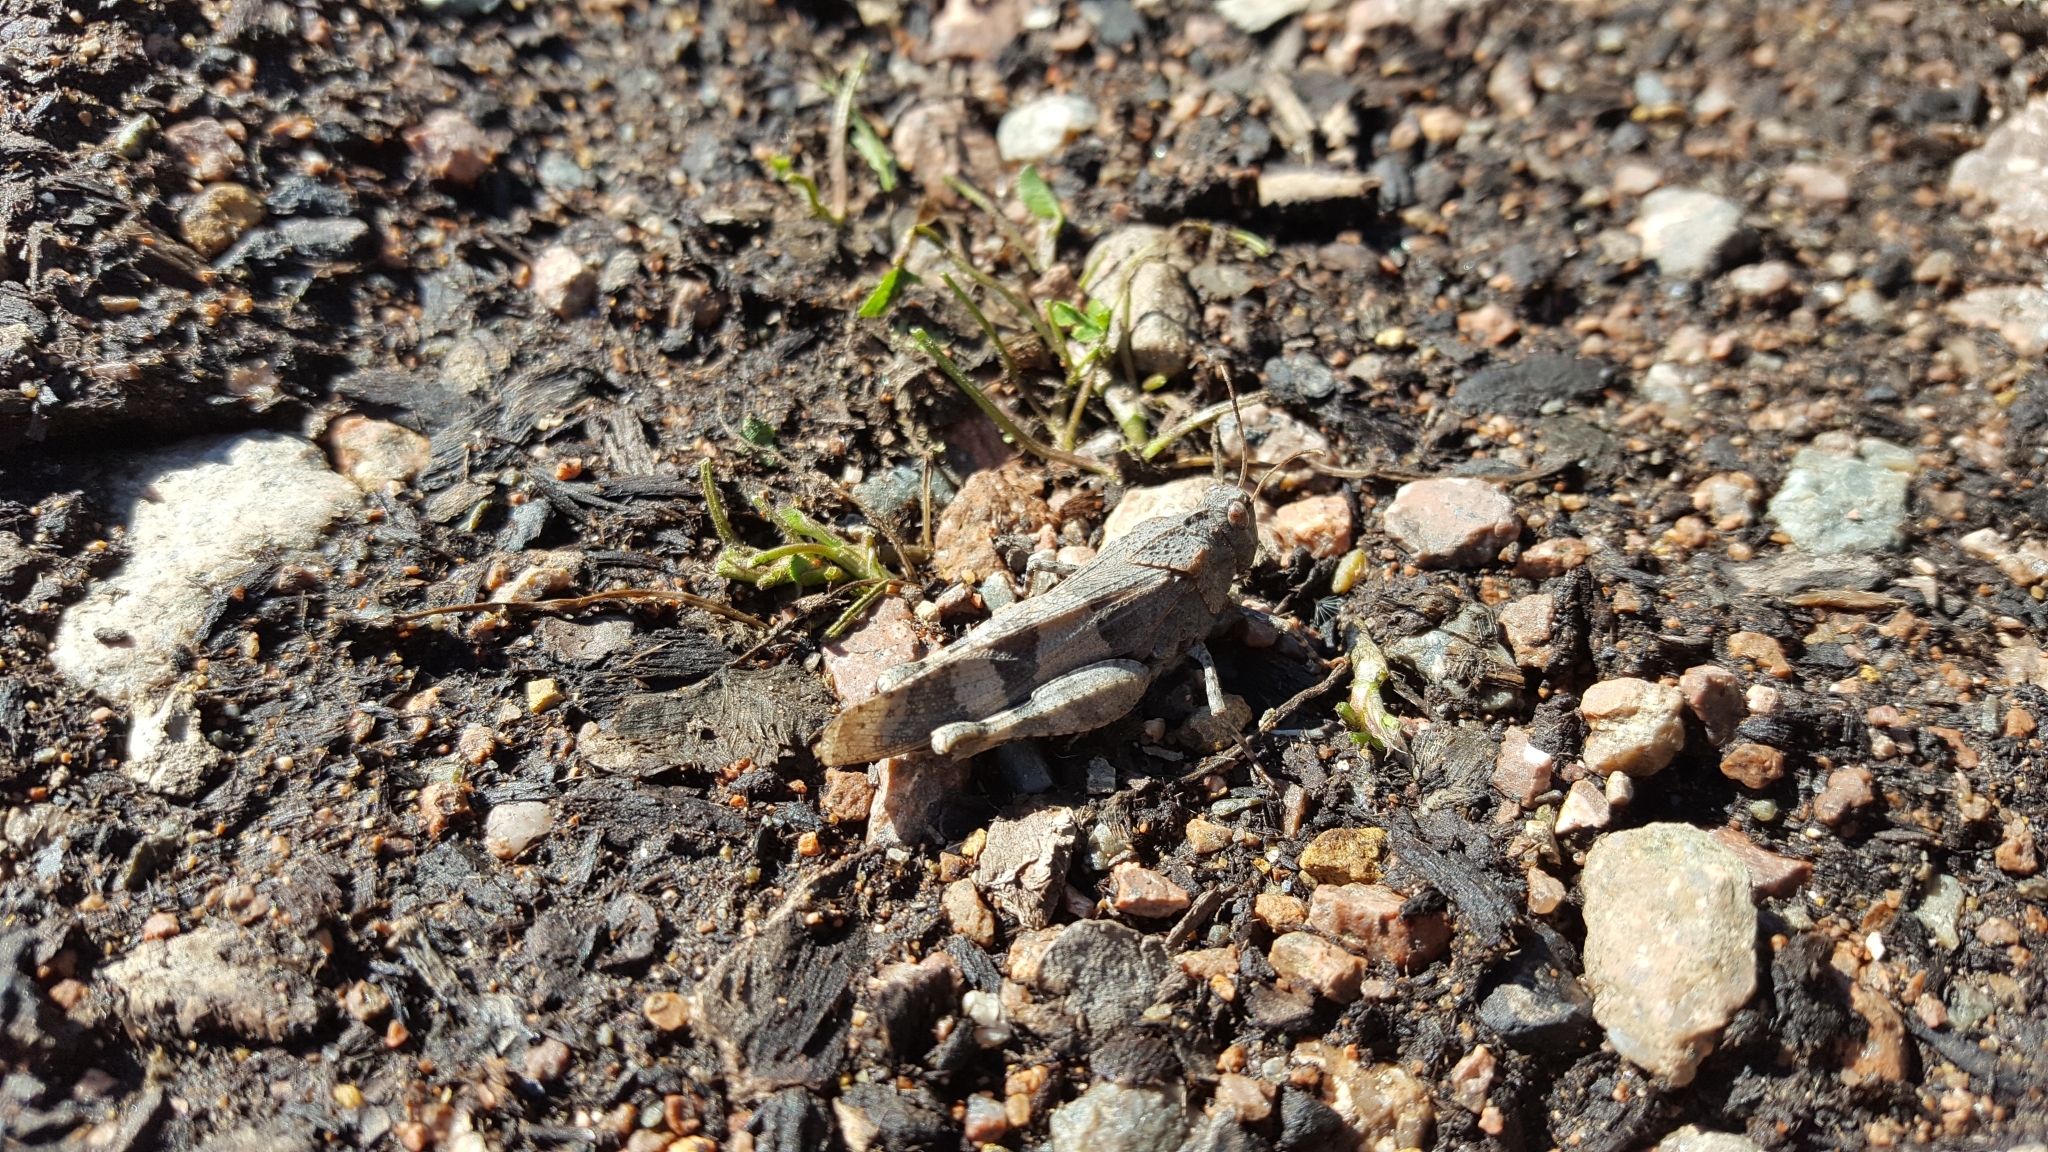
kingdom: Animalia
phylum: Arthropoda
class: Insecta
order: Orthoptera
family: Acrididae
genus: Oedipoda
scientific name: Oedipoda caerulescens
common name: Blue-winged grasshopper
